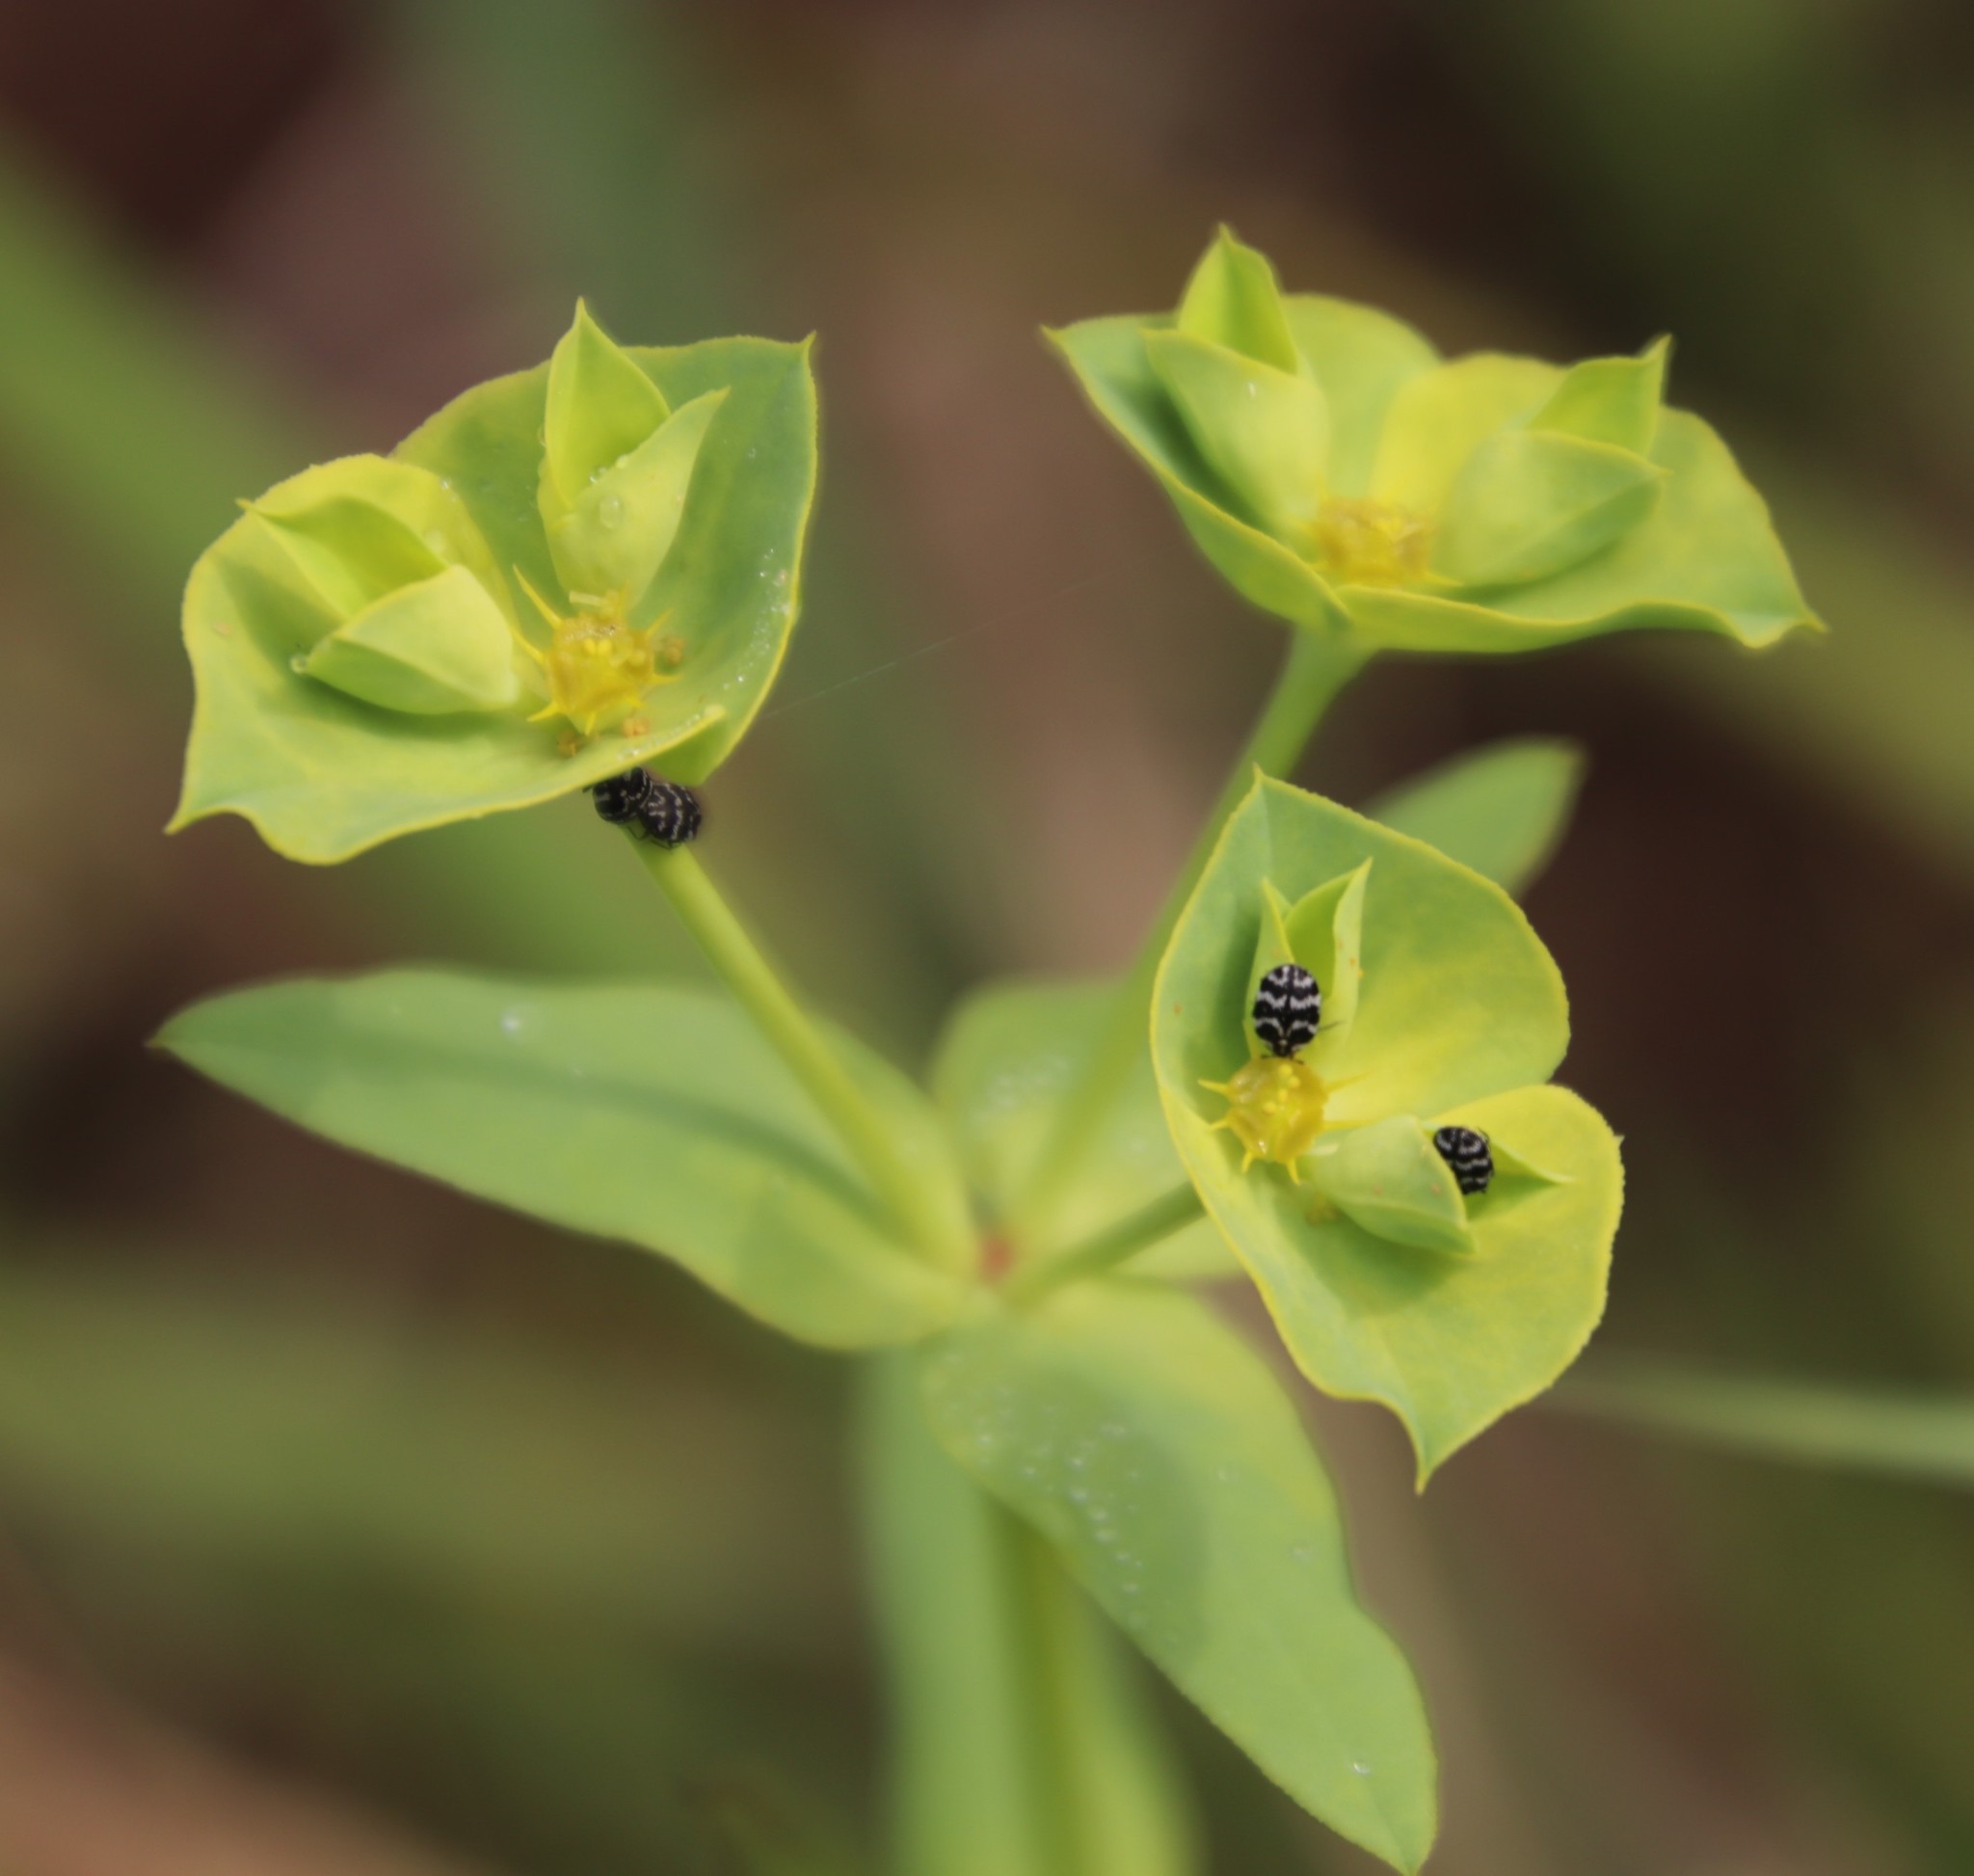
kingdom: Animalia
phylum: Arthropoda
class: Insecta
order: Coleoptera
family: Dermestidae
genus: Anthrenus
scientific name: Anthrenus
